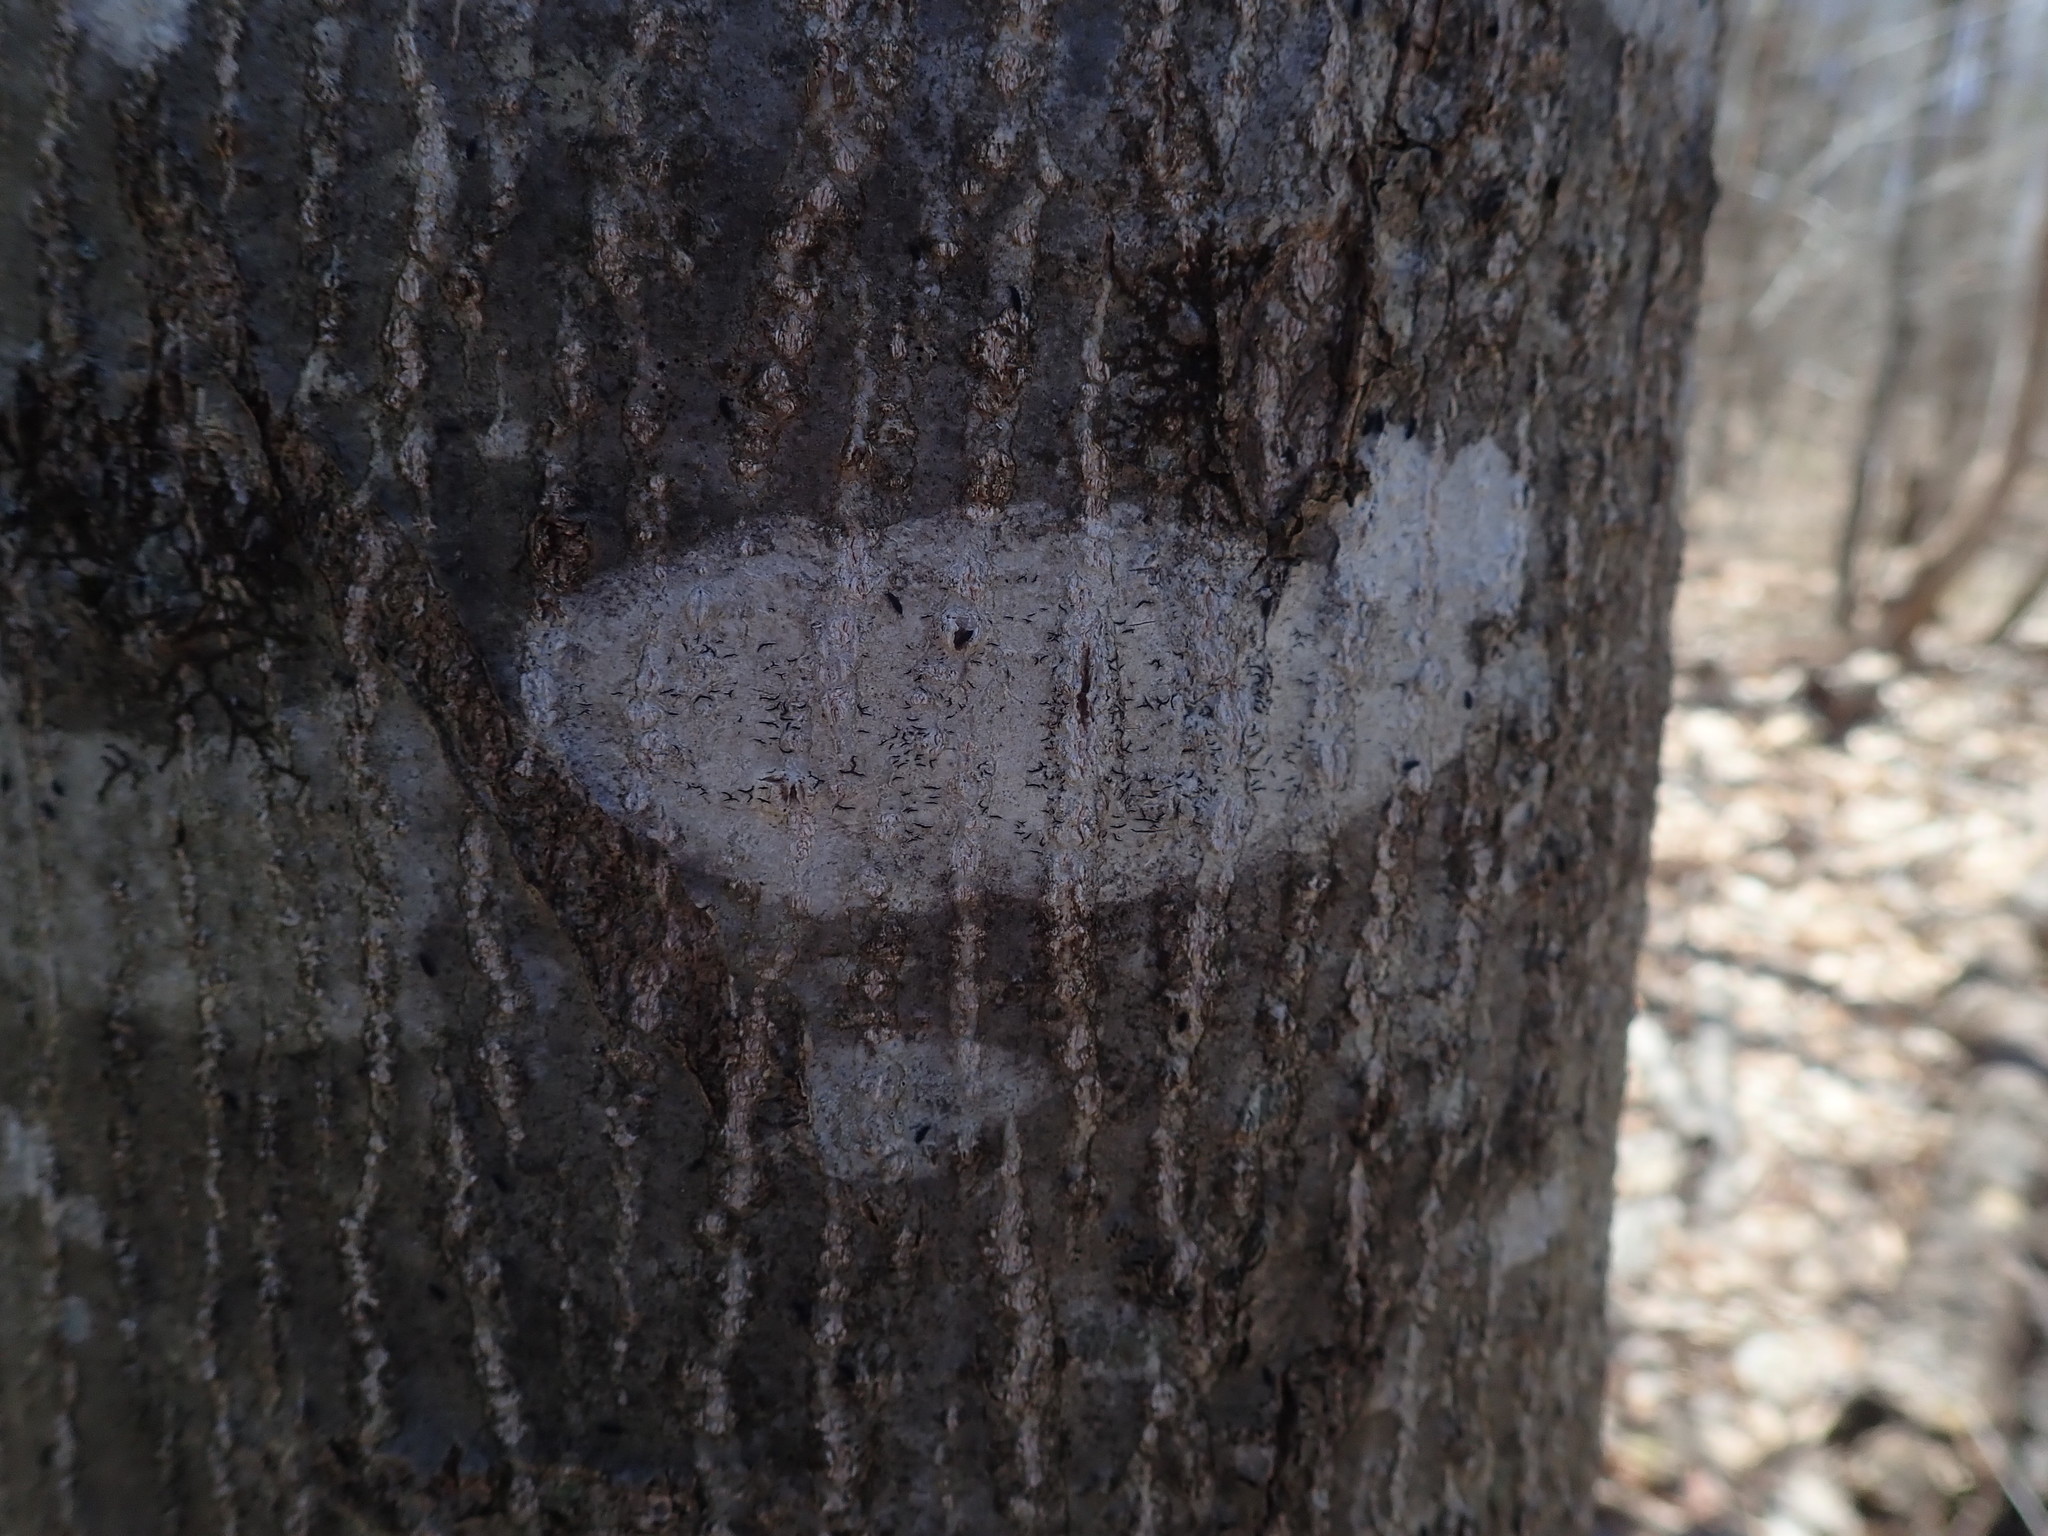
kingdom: Fungi
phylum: Ascomycota
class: Lecanoromycetes
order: Ostropales
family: Graphidaceae
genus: Graphis
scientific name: Graphis scripta
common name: Script lichen
